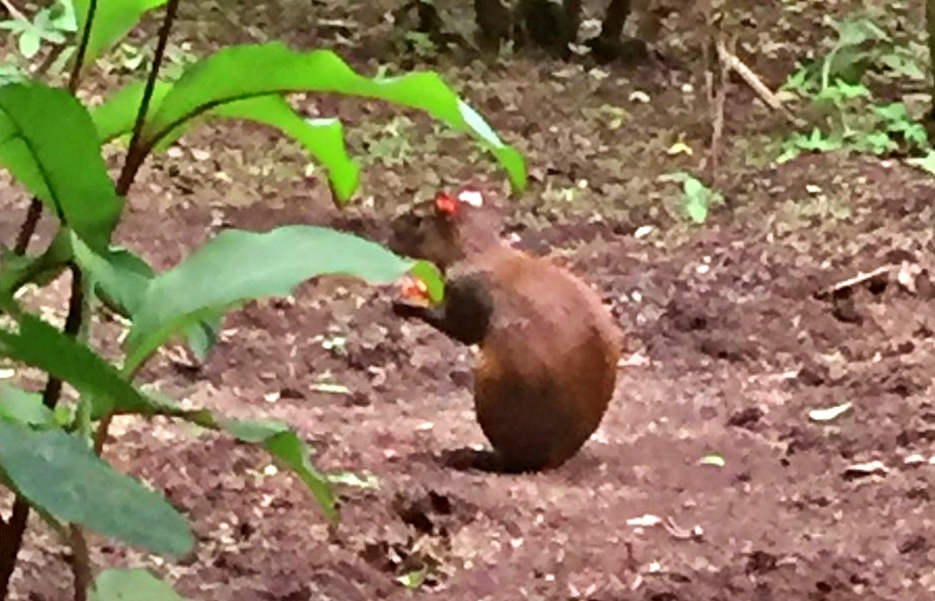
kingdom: Animalia
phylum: Chordata
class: Mammalia
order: Rodentia
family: Dasyproctidae
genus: Dasyprocta
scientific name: Dasyprocta punctata
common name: Central american agouti
